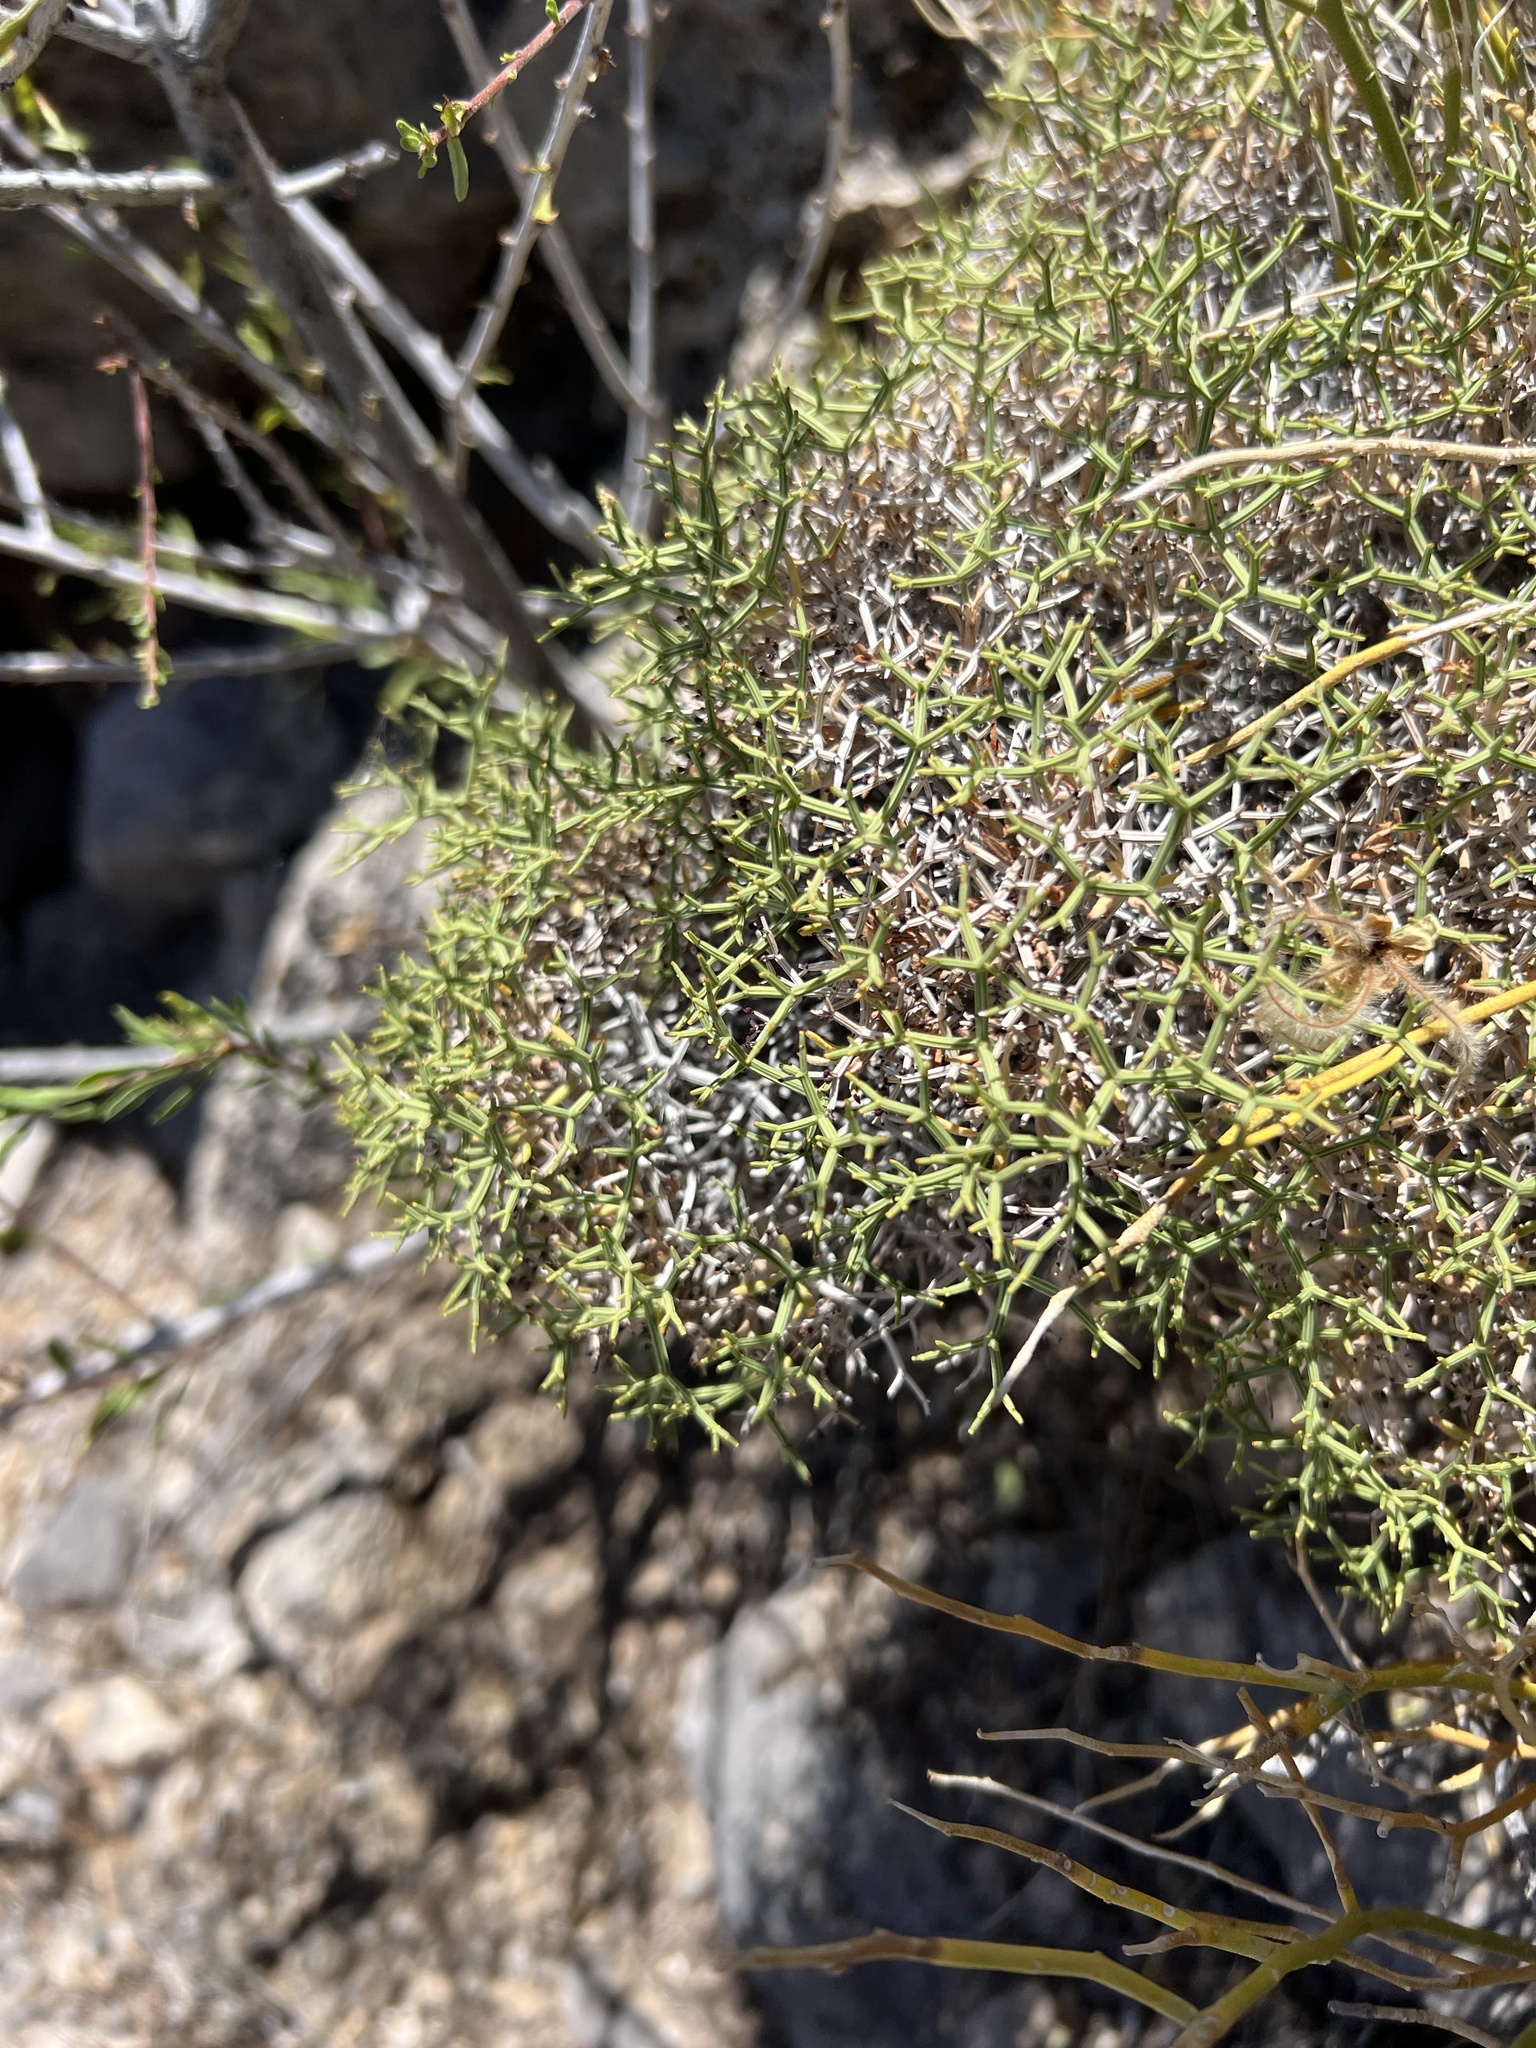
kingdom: Plantae
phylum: Tracheophyta
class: Magnoliopsida
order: Caryophyllales
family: Polygonaceae
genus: Eriogonum
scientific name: Eriogonum heermannii
